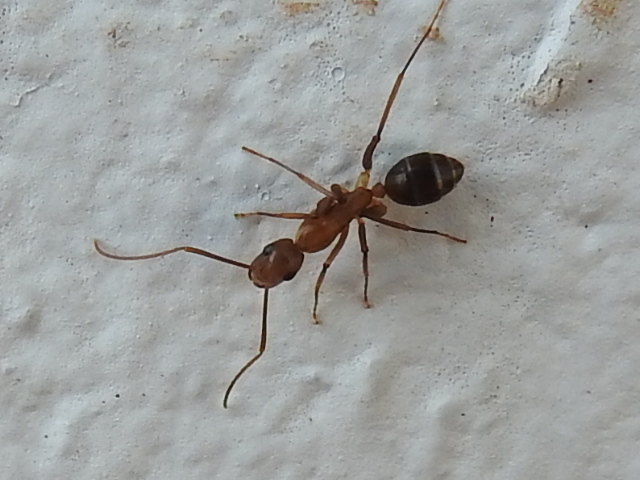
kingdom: Animalia
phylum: Arthropoda
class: Insecta
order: Hymenoptera
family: Formicidae
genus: Camponotus
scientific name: Camponotus inaequalis
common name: Ant
